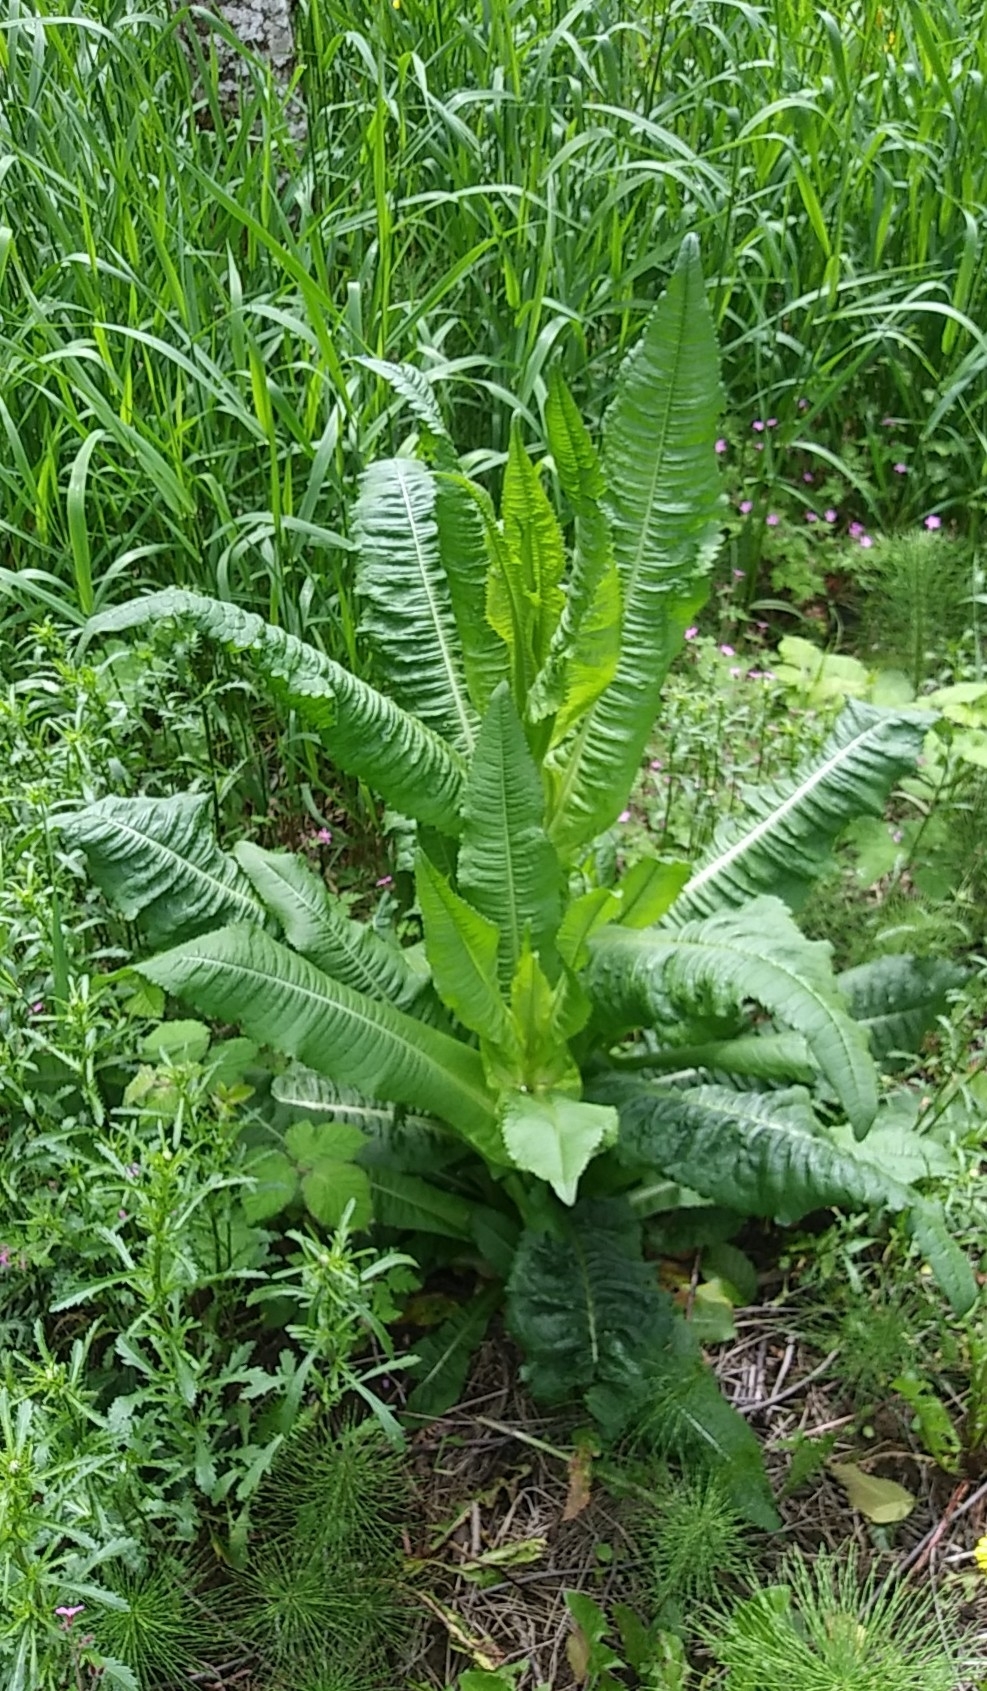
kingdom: Plantae
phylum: Tracheophyta
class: Magnoliopsida
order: Dipsacales
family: Caprifoliaceae
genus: Dipsacus
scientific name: Dipsacus fullonum
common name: Teasel
